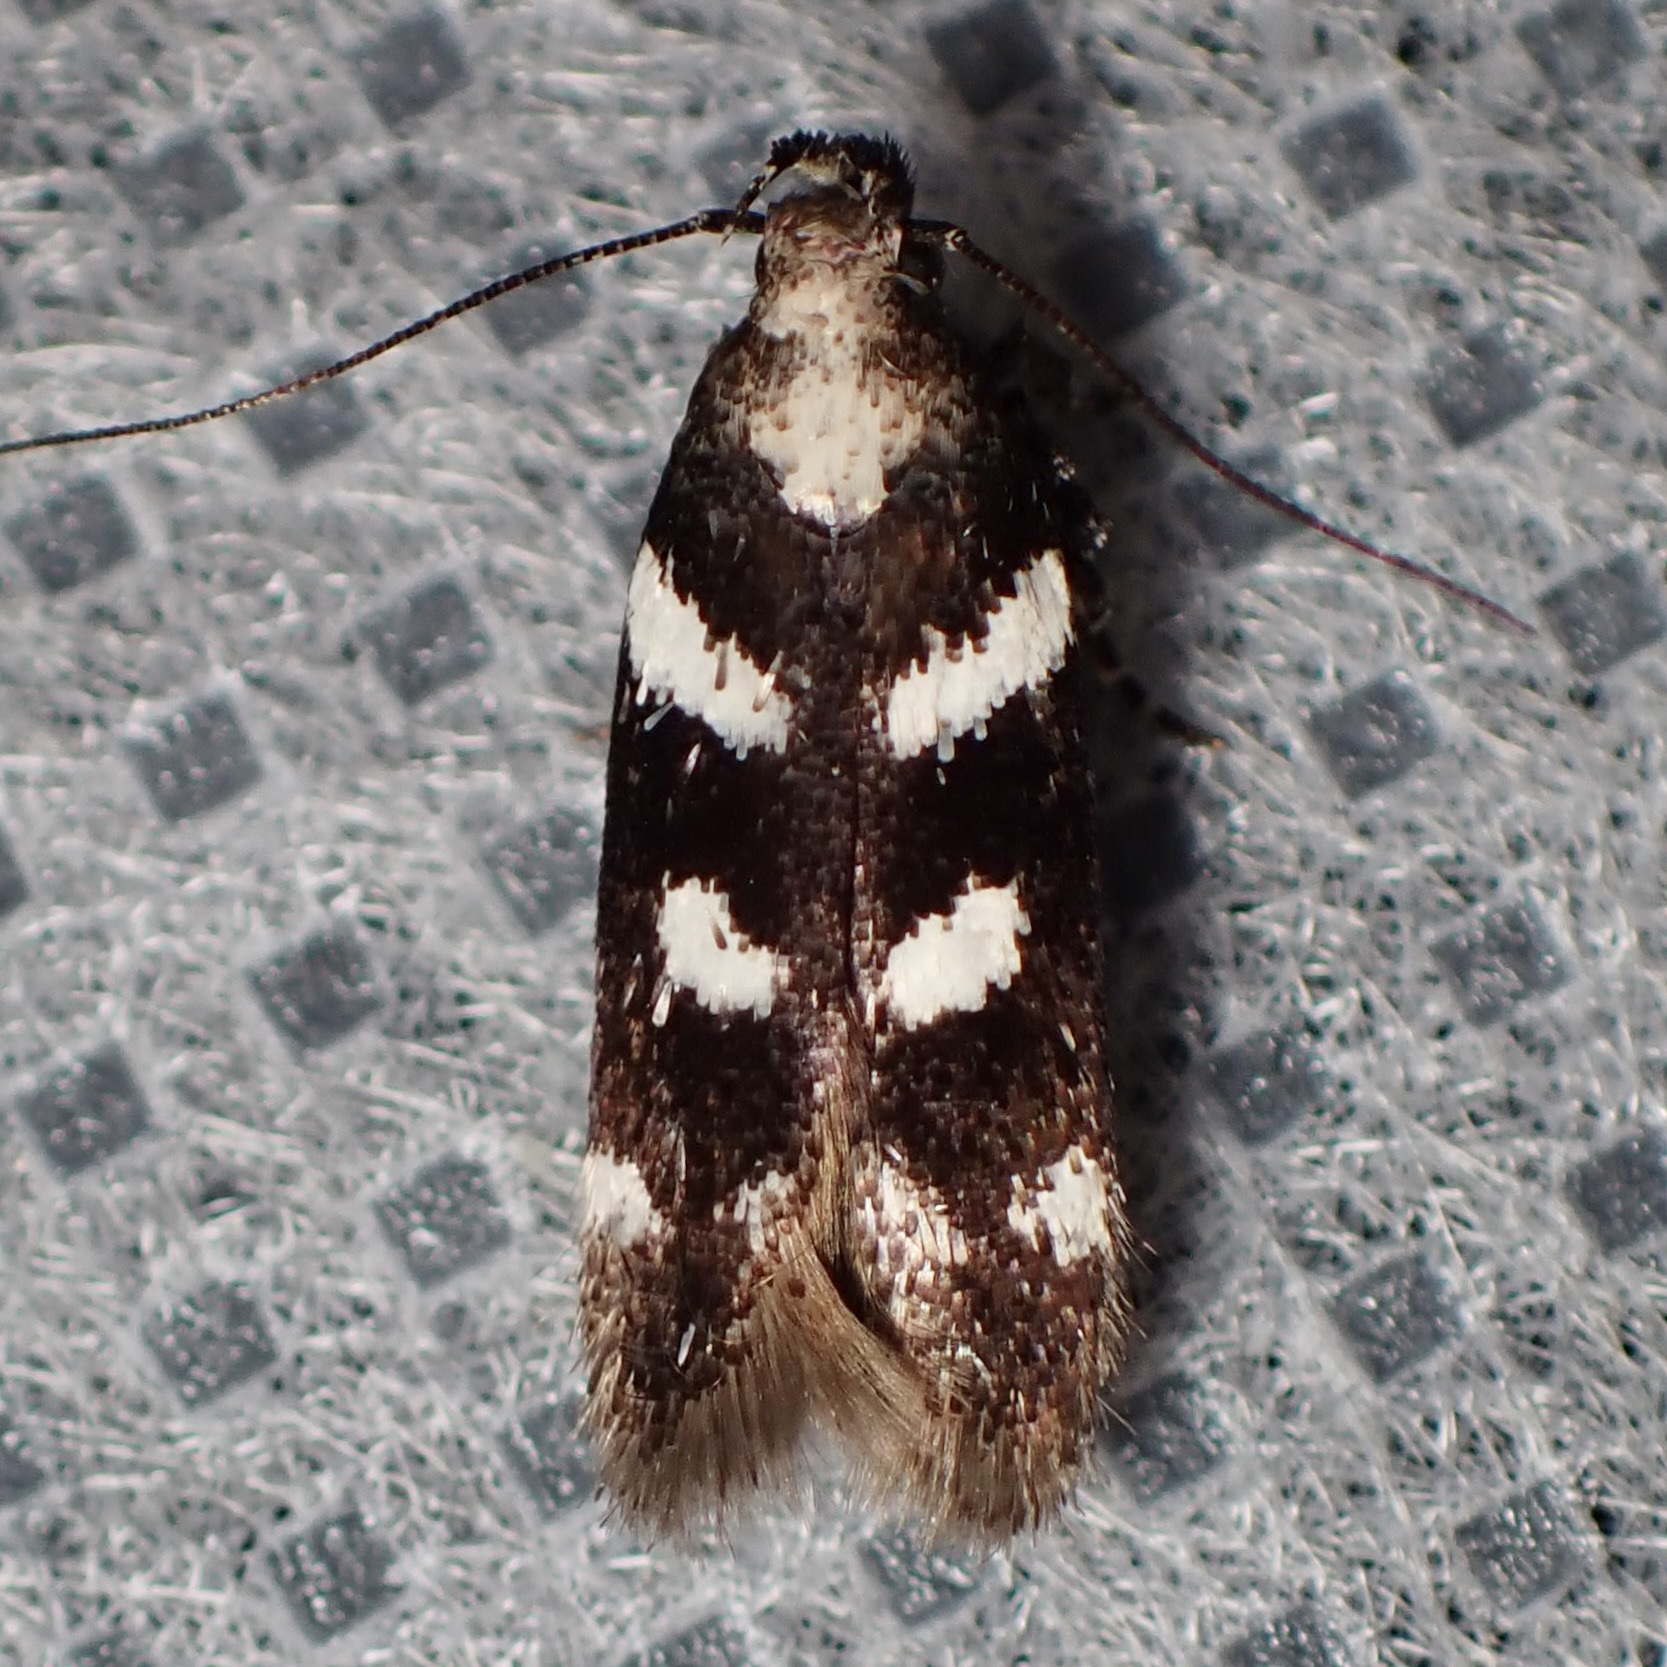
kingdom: Animalia
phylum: Arthropoda
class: Insecta
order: Lepidoptera
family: Gelechiidae
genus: Filatima
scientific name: Filatima arizonella
